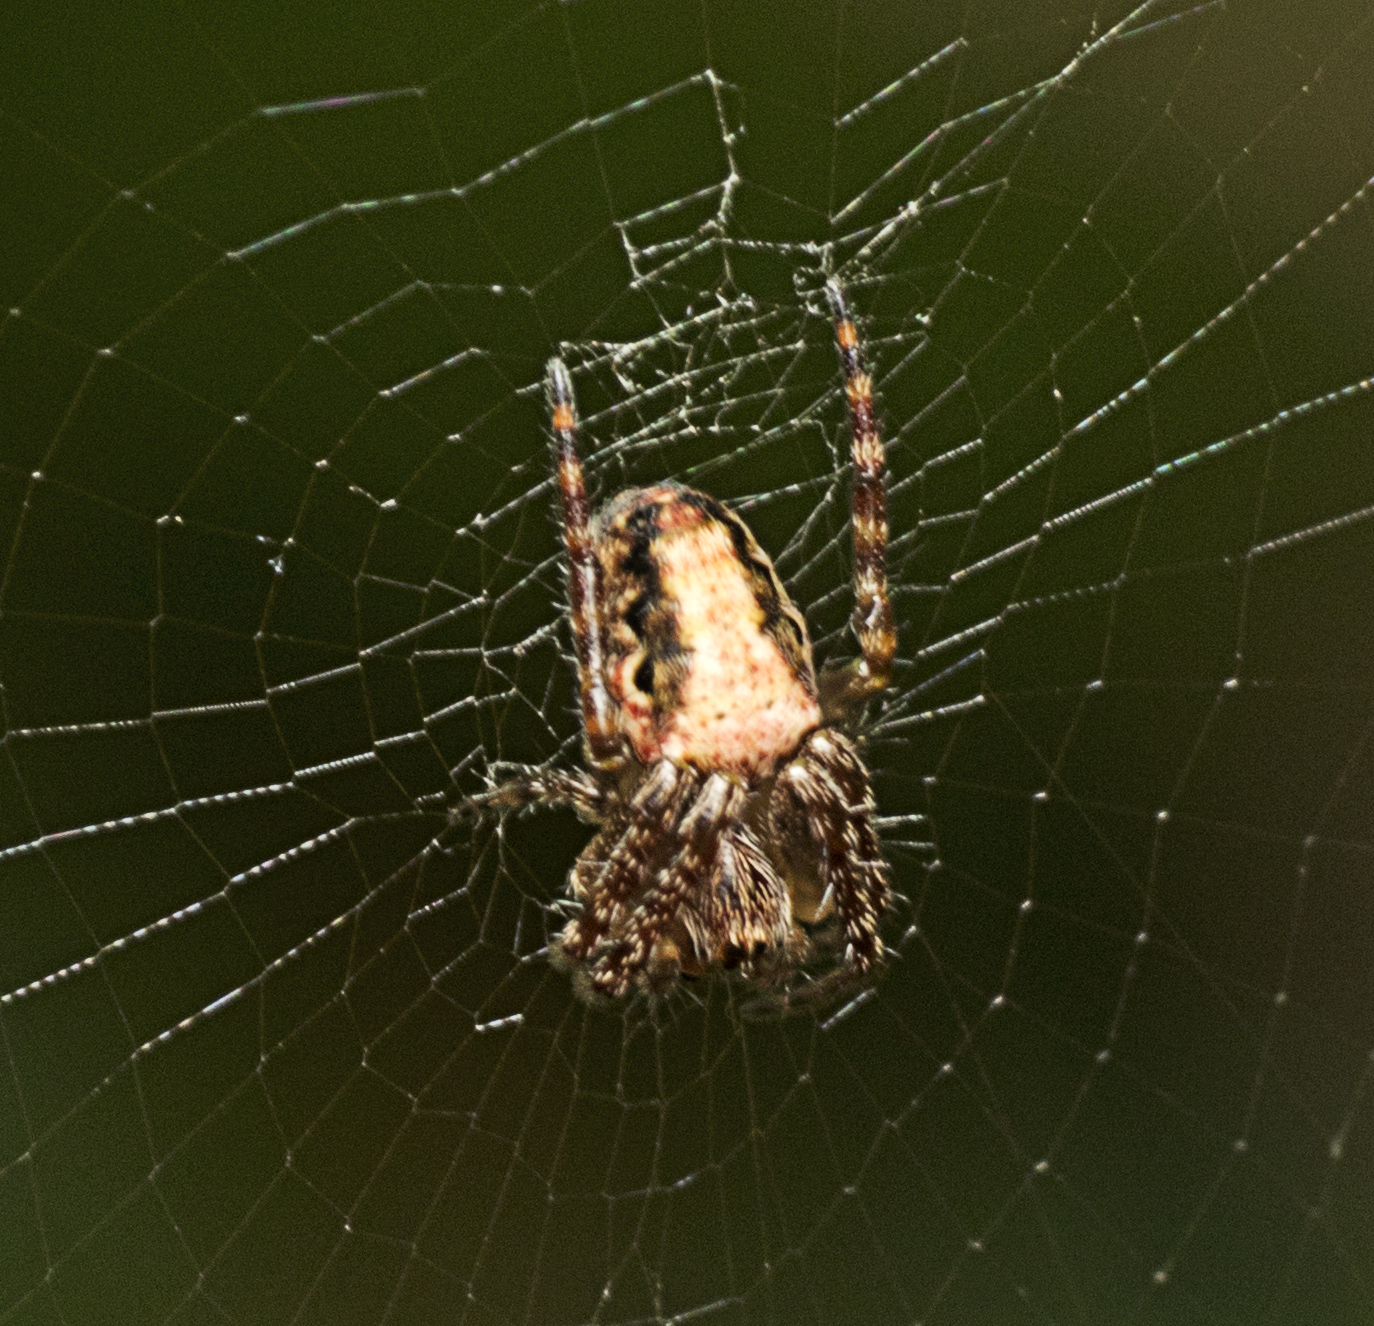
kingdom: Animalia
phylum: Arthropoda
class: Arachnida
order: Araneae
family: Araneidae
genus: Plebs
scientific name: Plebs eburnus
